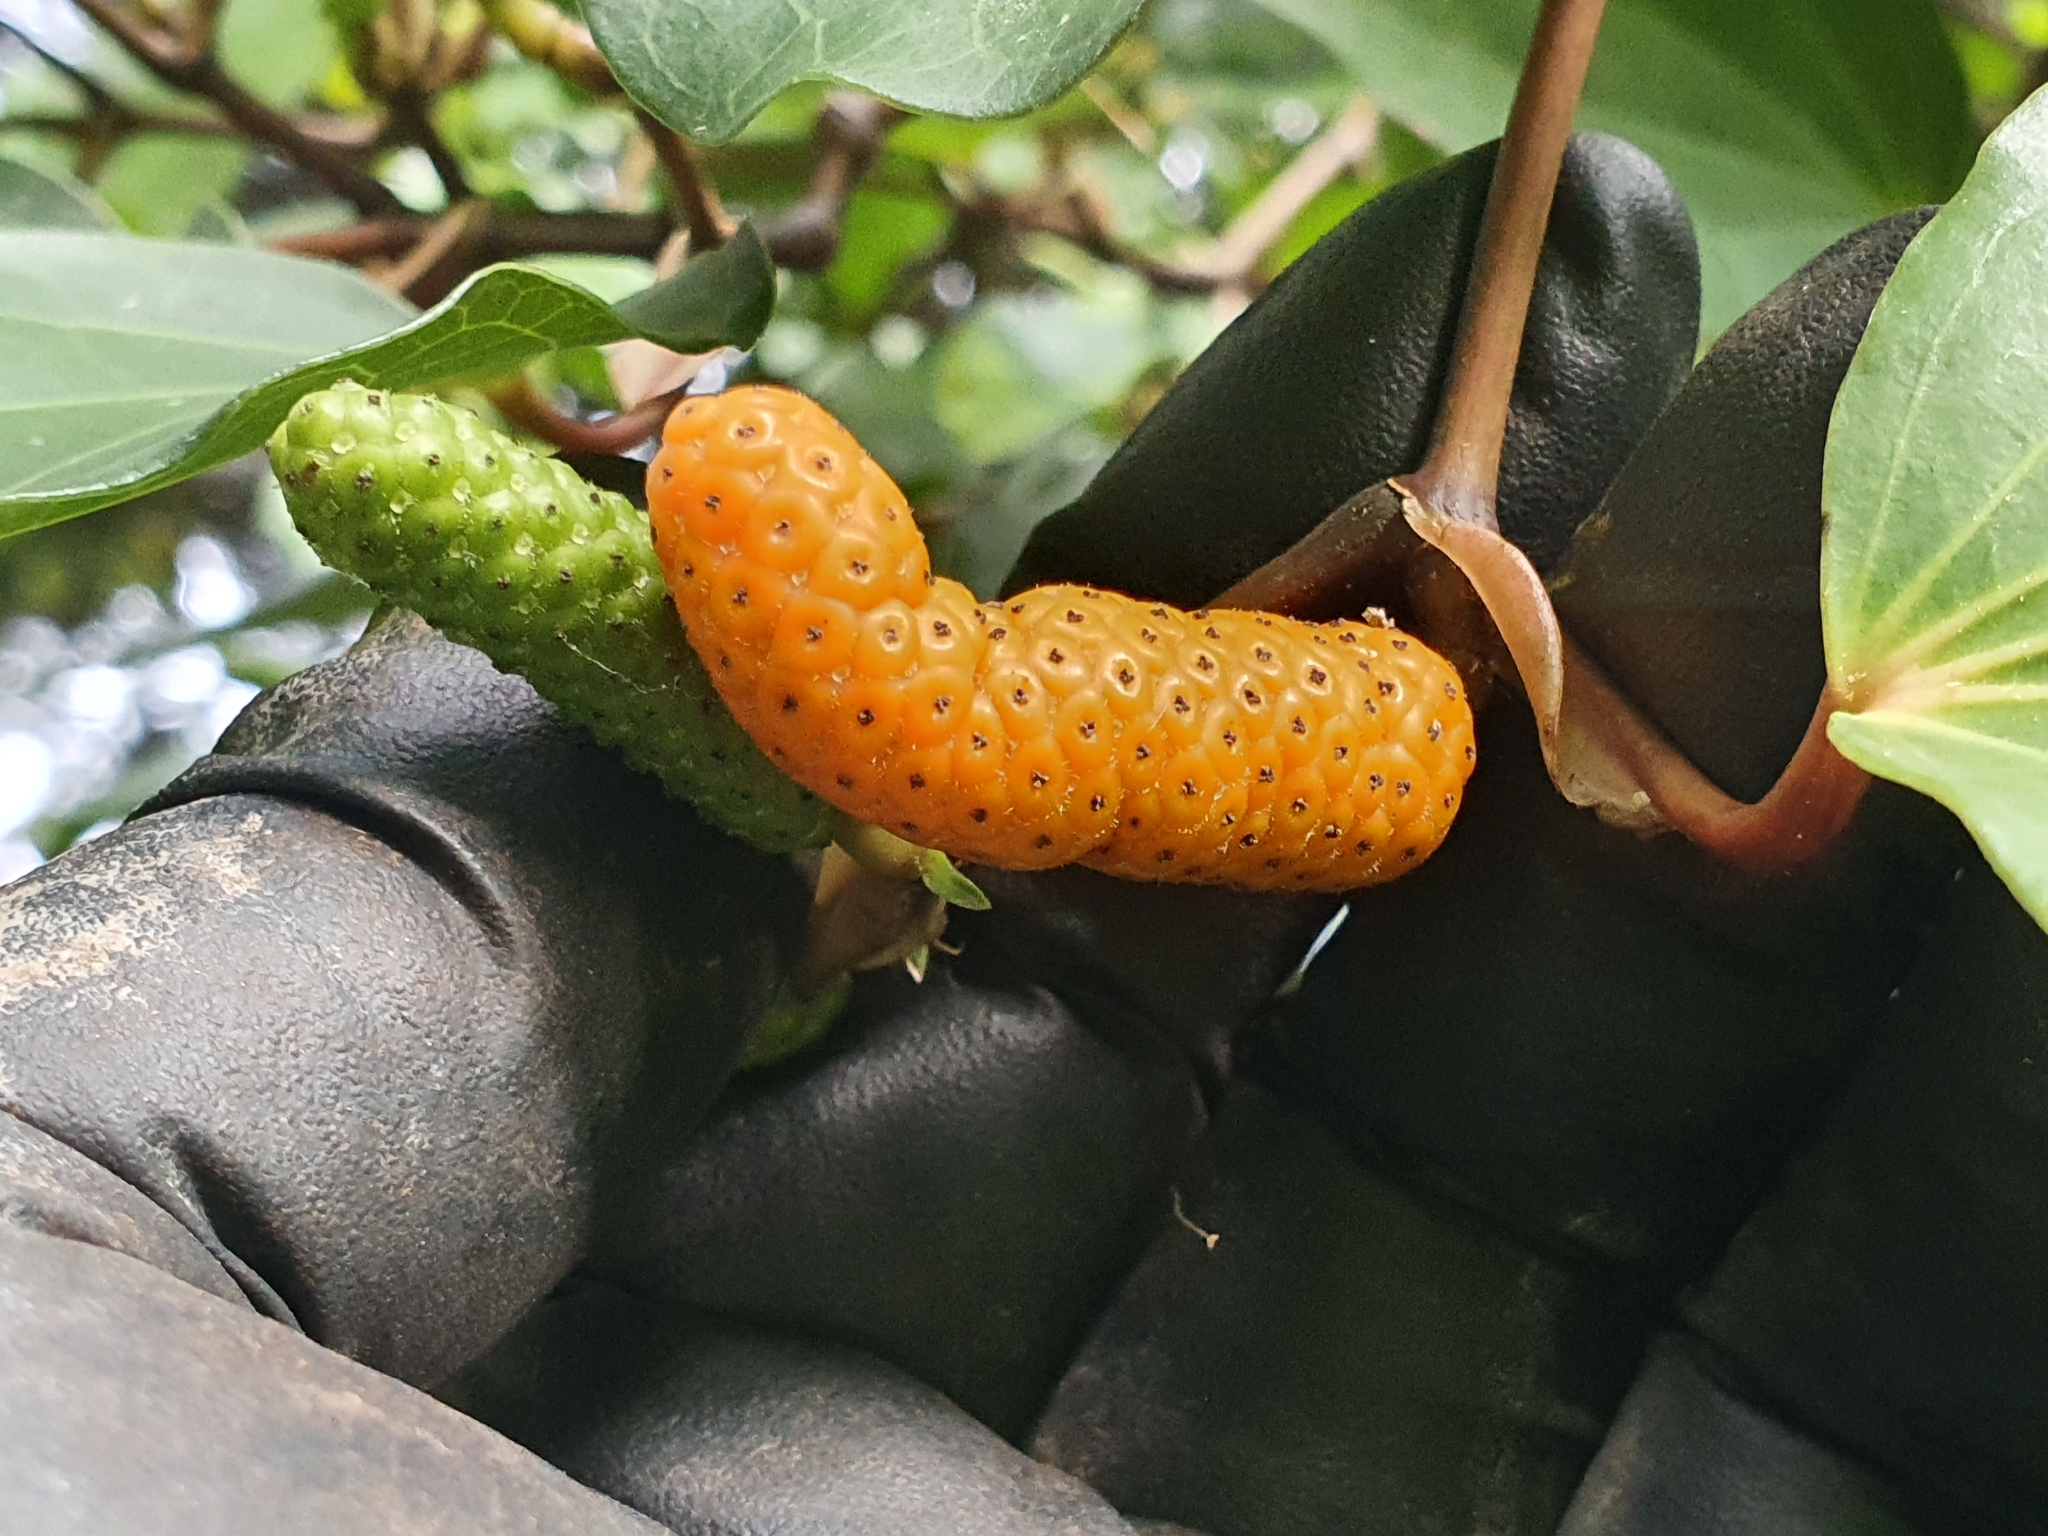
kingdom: Plantae
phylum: Tracheophyta
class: Magnoliopsida
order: Piperales
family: Piperaceae
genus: Macropiper
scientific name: Macropiper excelsum
